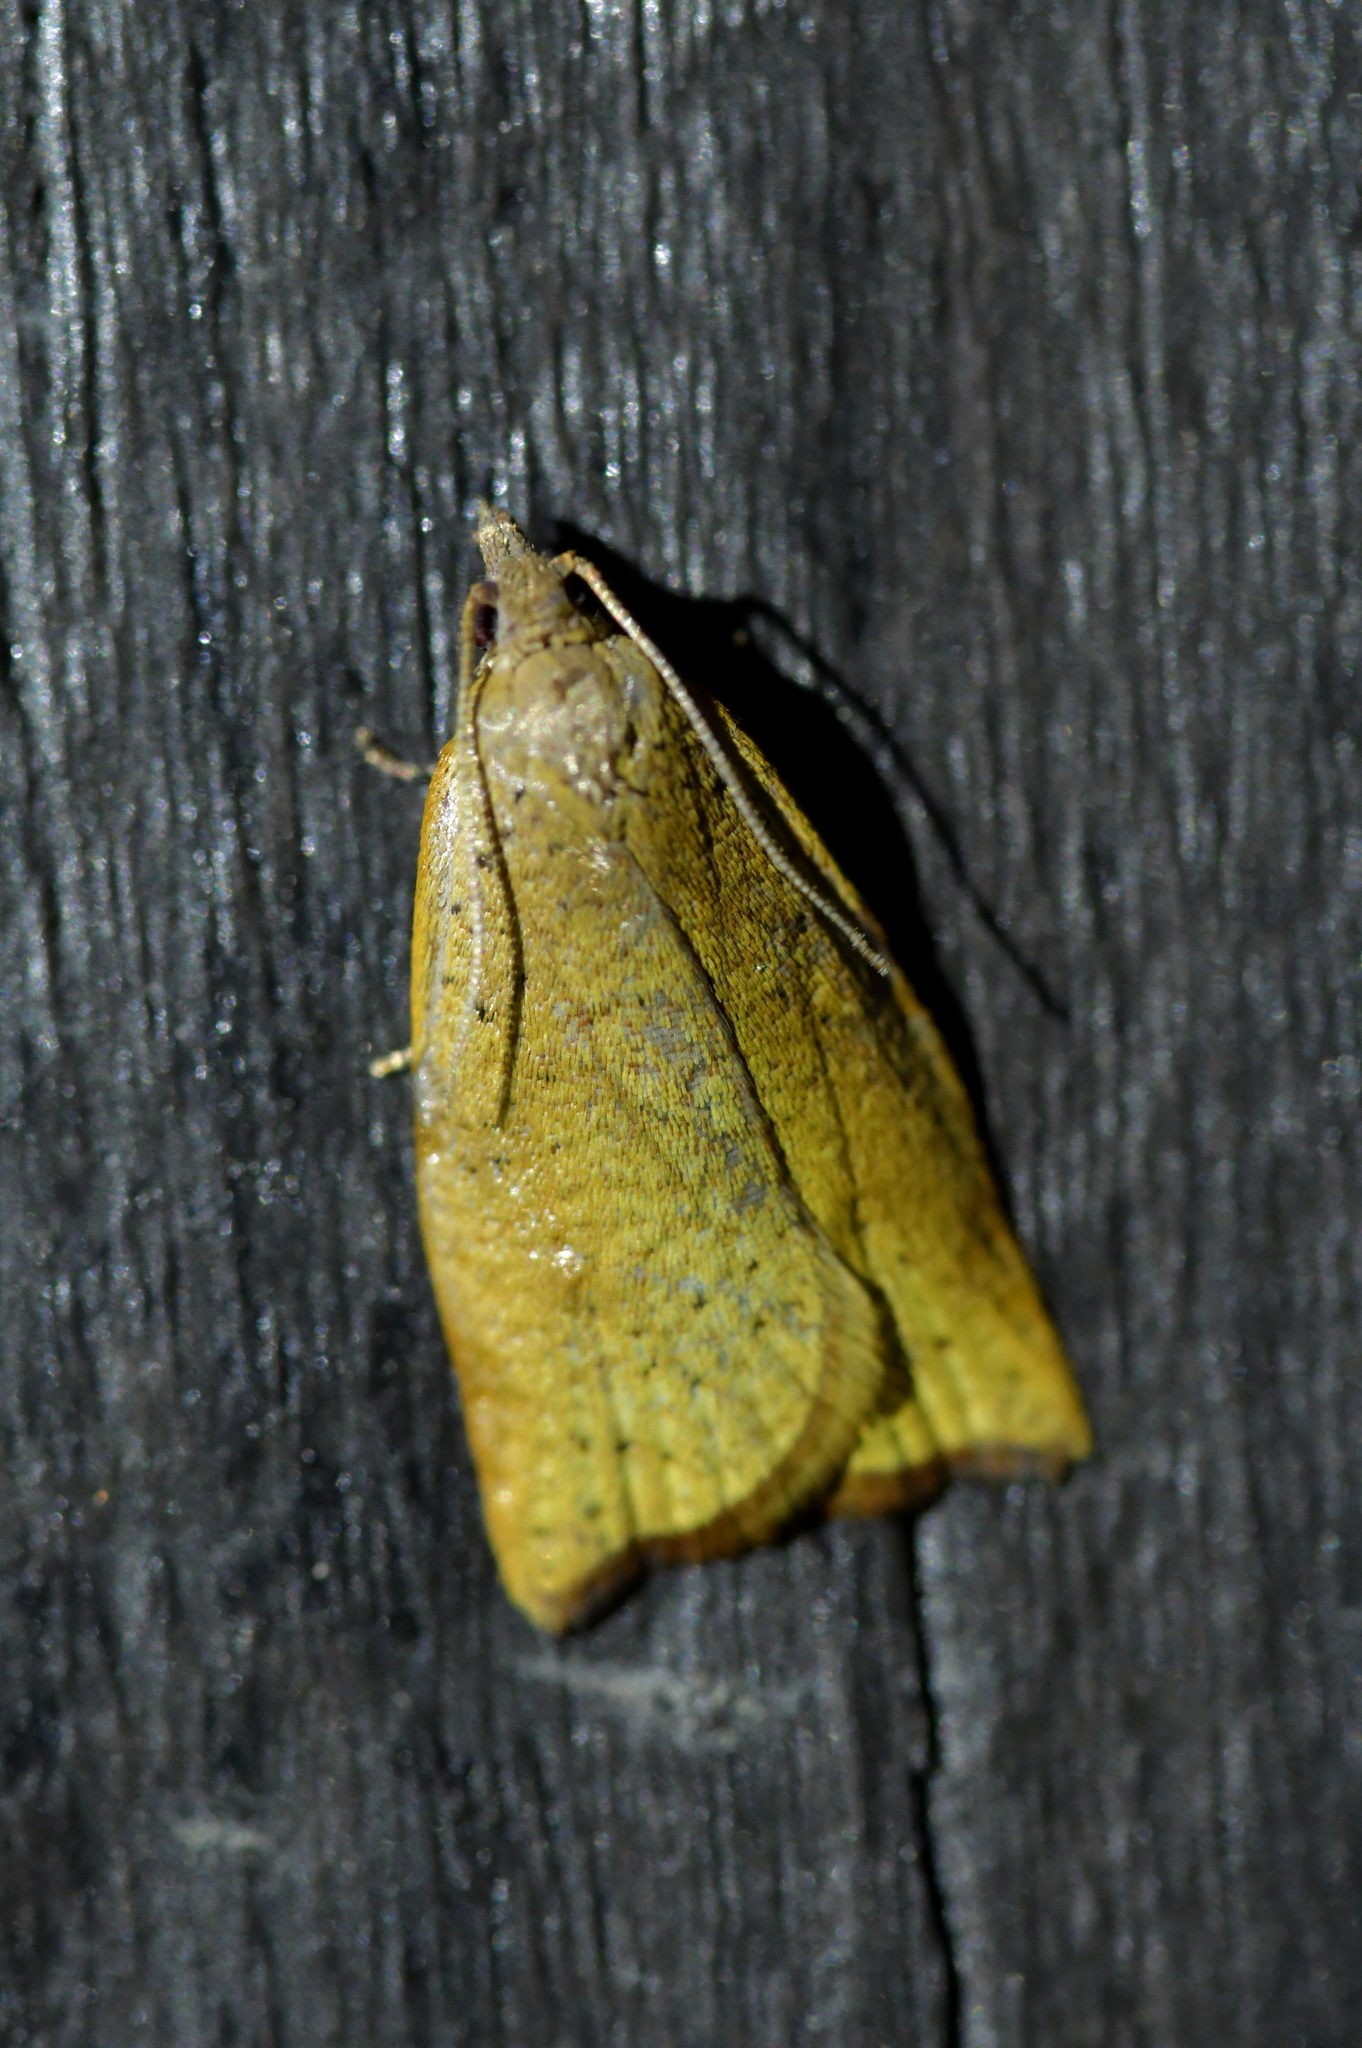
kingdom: Animalia
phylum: Arthropoda
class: Insecta
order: Lepidoptera
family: Tortricidae
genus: Apoctena
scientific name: Apoctena flavescens
